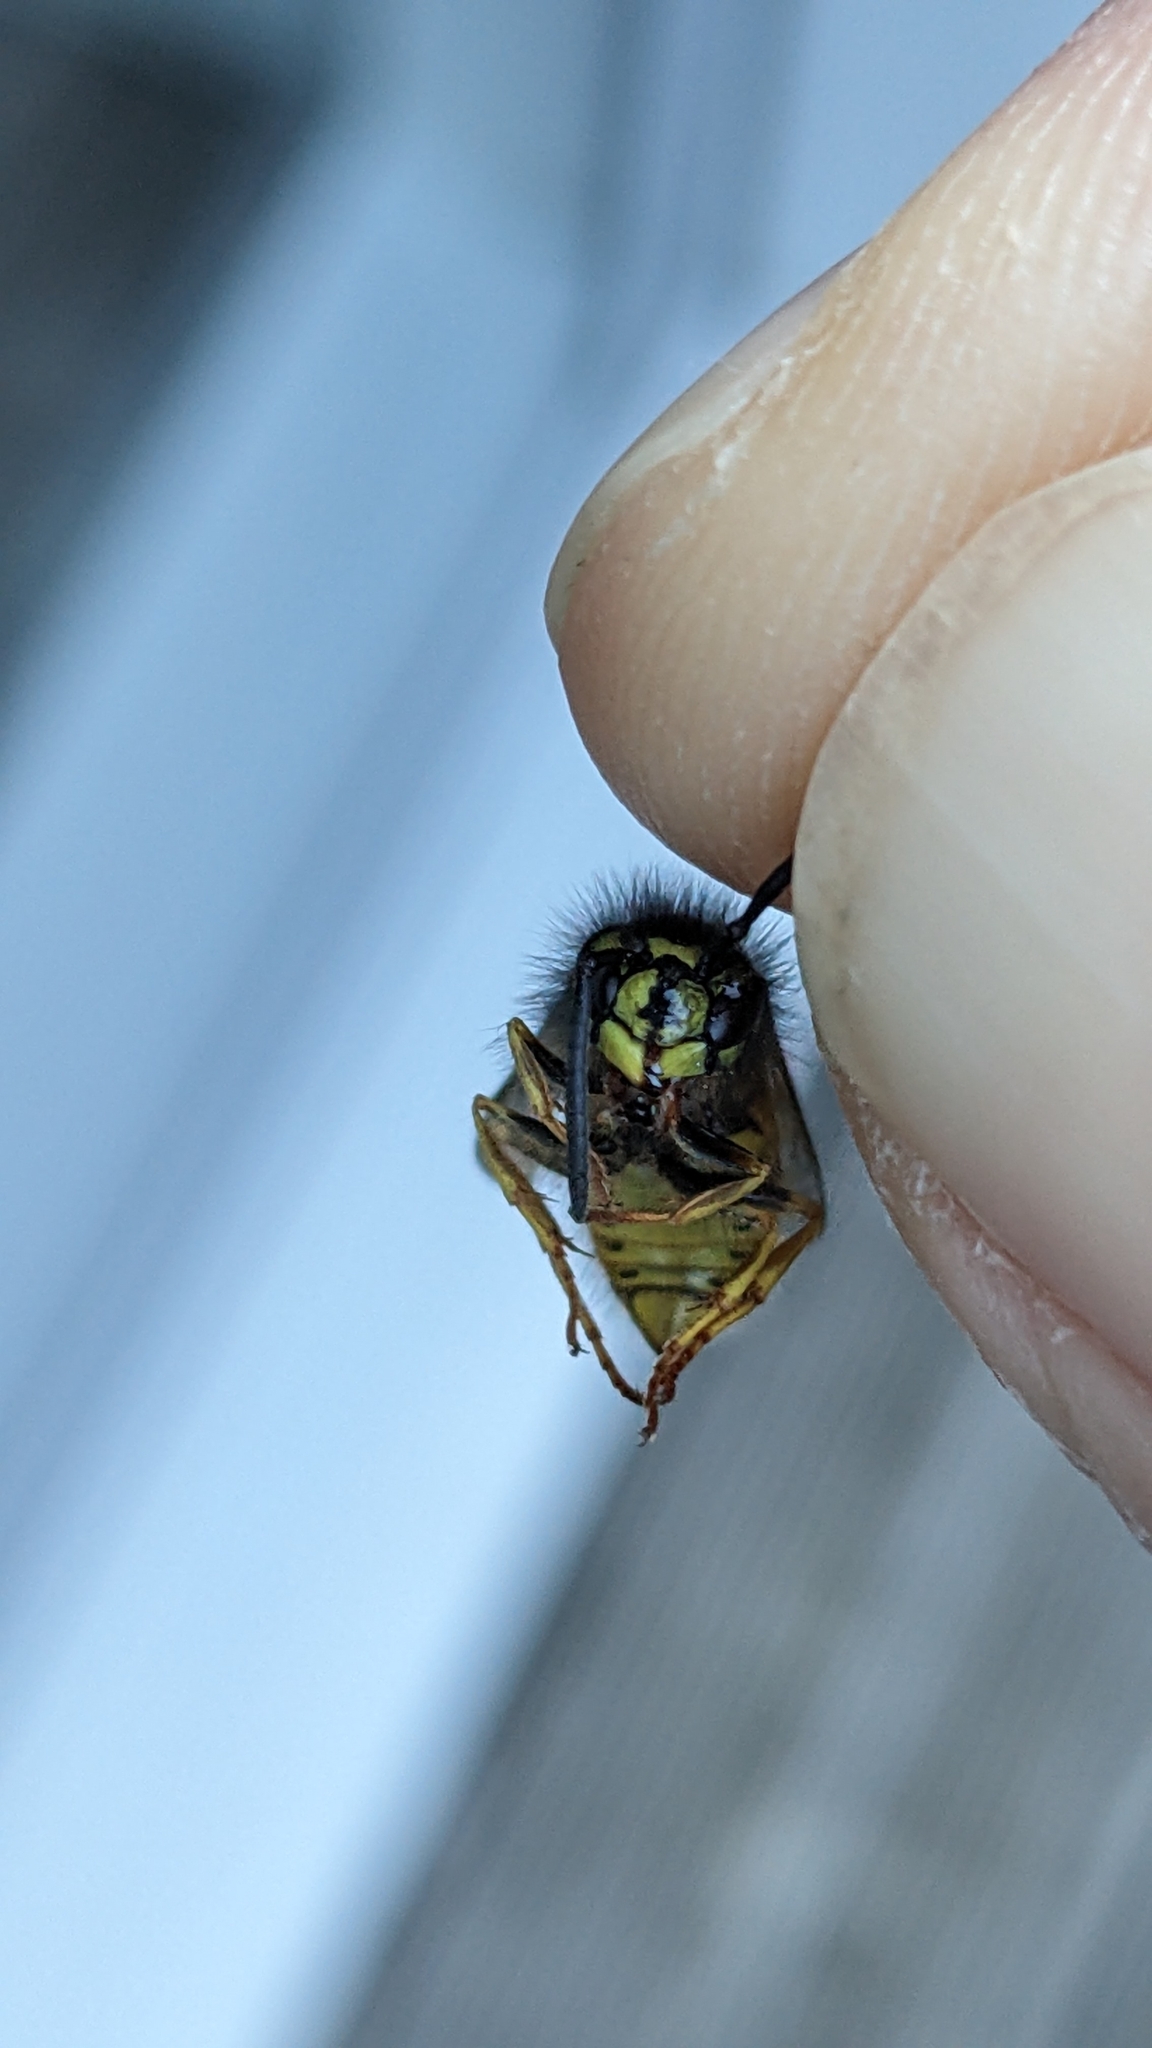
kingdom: Animalia
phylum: Arthropoda
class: Insecta
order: Hymenoptera
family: Vespidae
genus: Vespula
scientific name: Vespula vulgaris
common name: Common wasp
